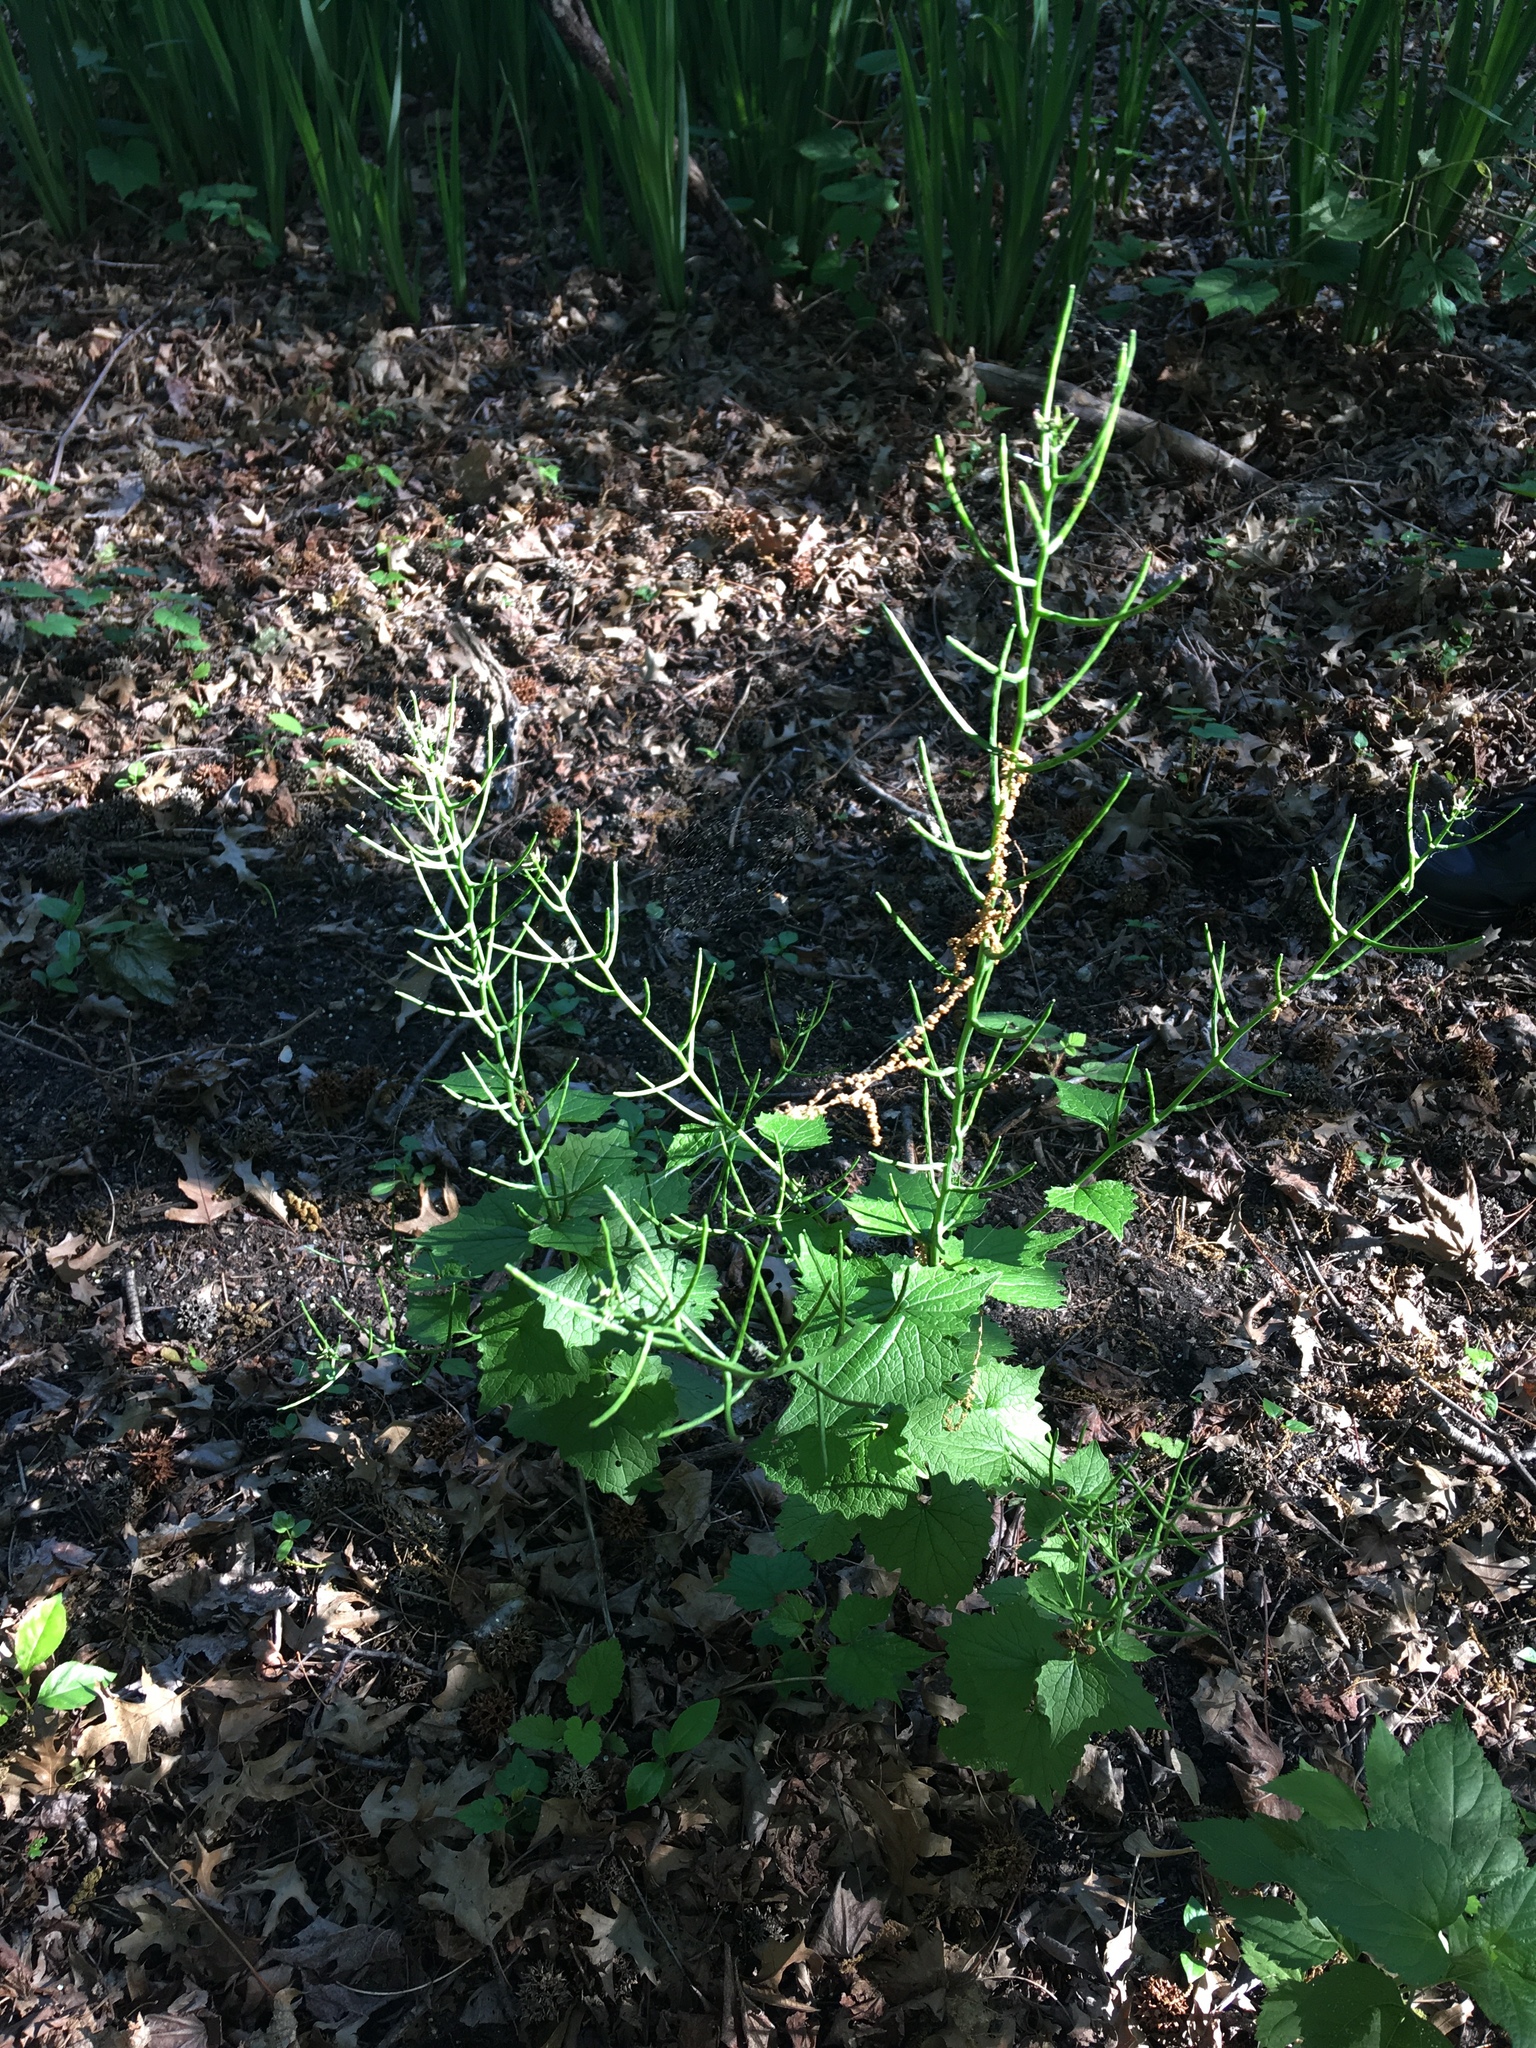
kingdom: Plantae
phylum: Tracheophyta
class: Magnoliopsida
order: Brassicales
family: Brassicaceae
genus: Alliaria
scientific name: Alliaria petiolata
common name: Garlic mustard
